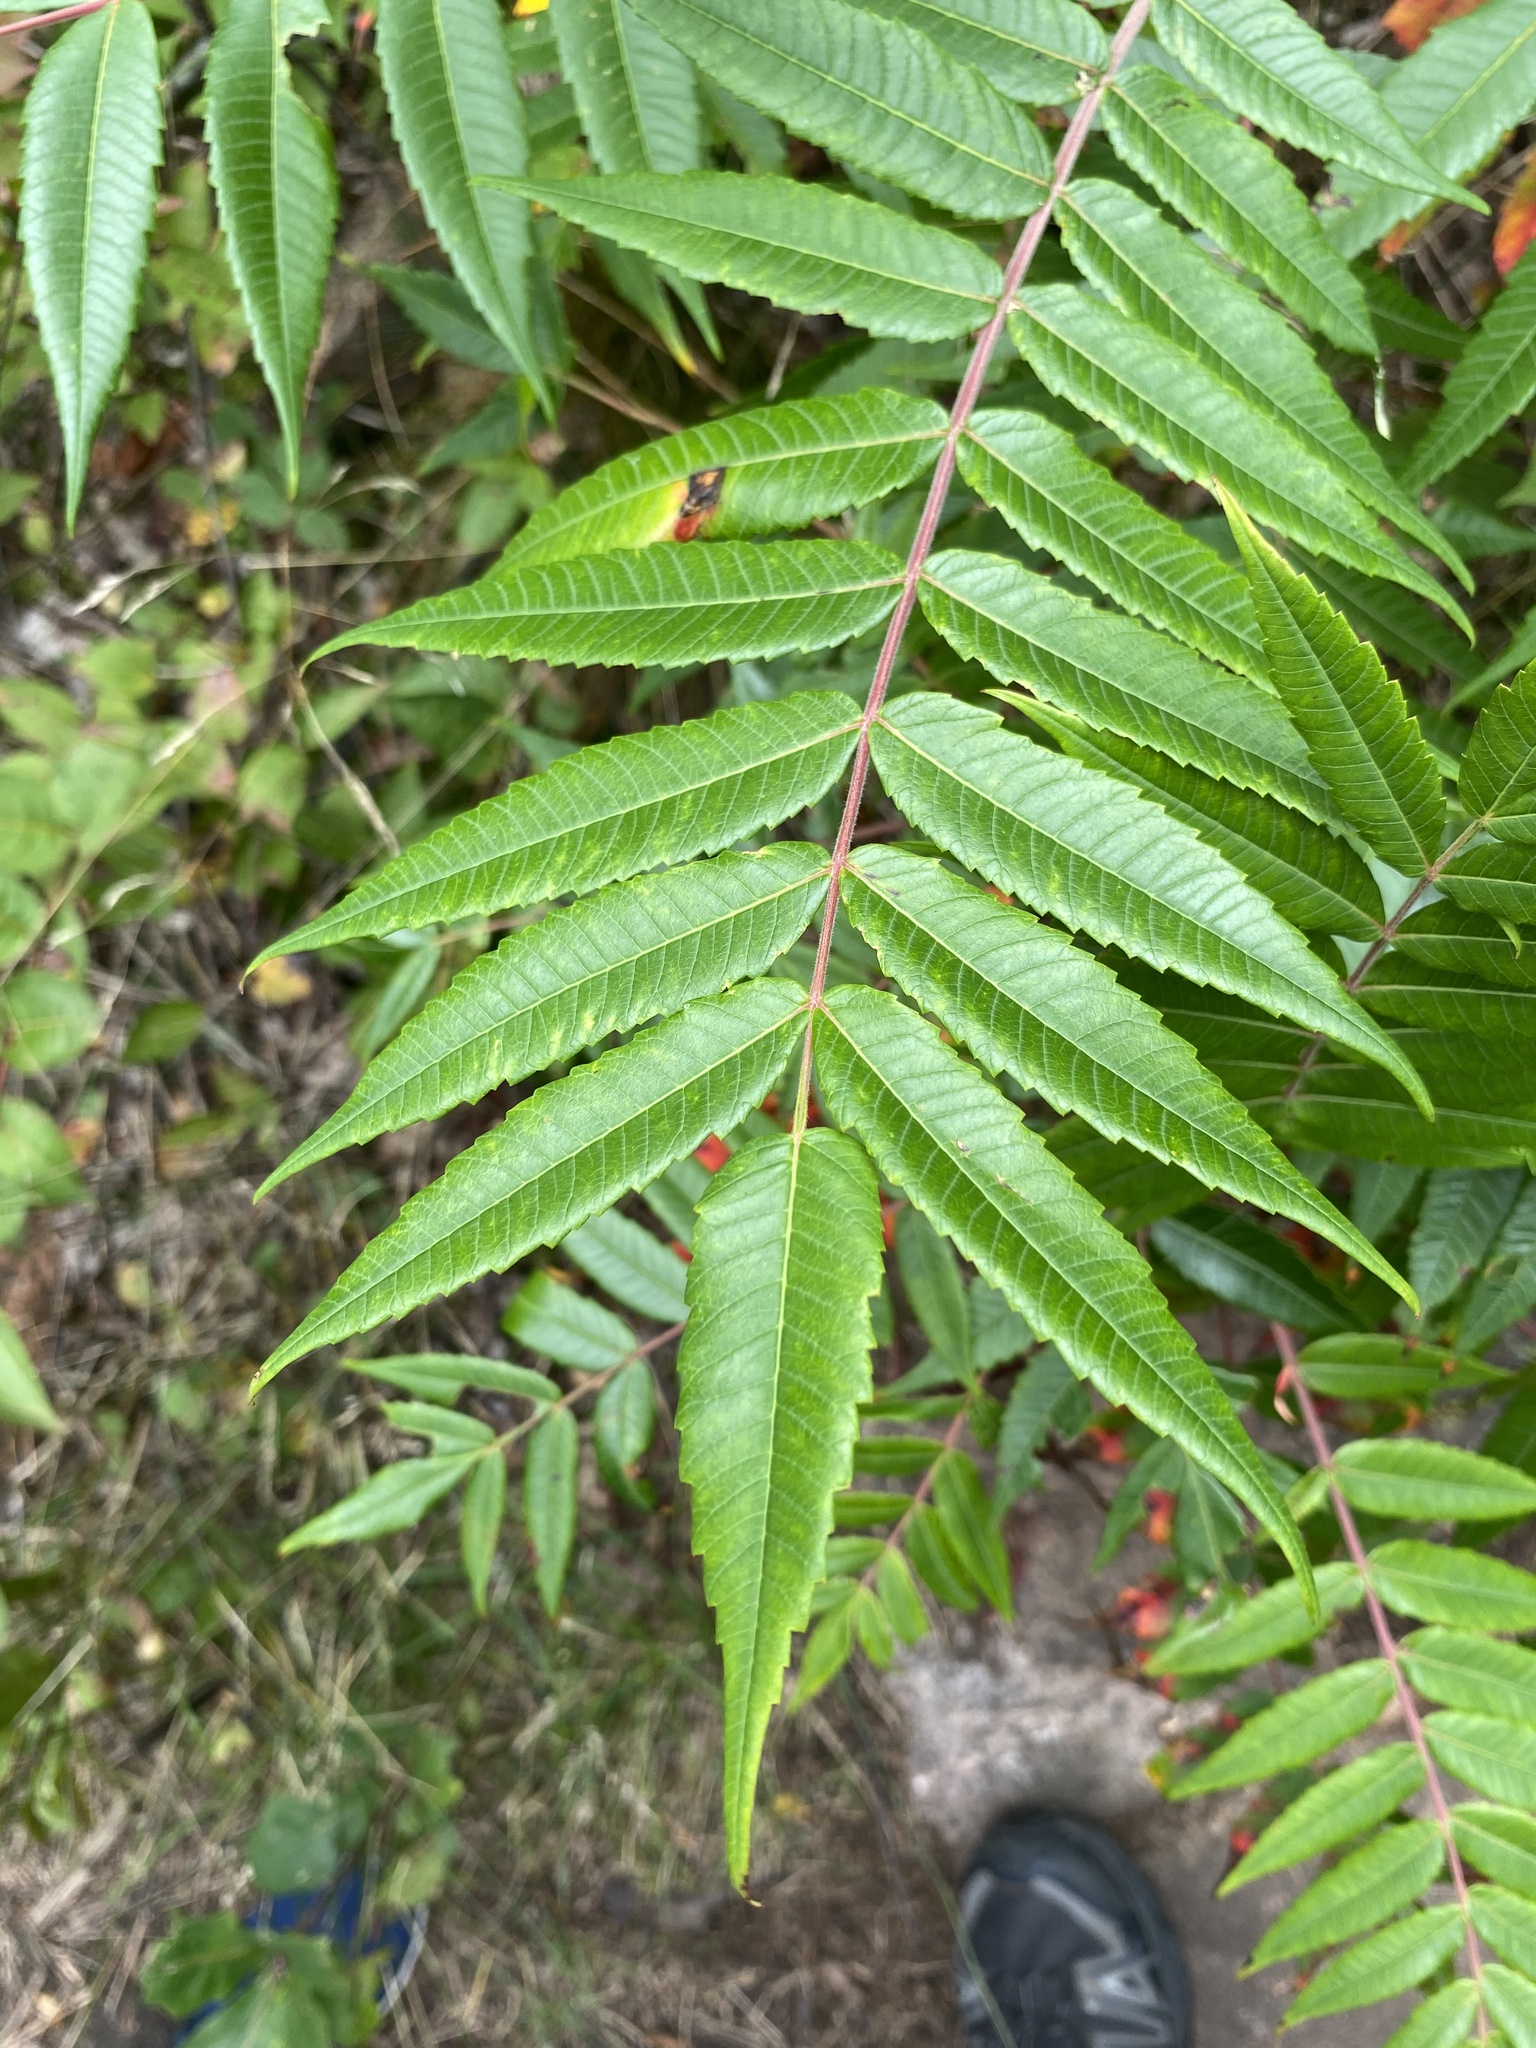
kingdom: Plantae
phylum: Tracheophyta
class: Magnoliopsida
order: Sapindales
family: Anacardiaceae
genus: Rhus
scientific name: Rhus typhina
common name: Staghorn sumac
